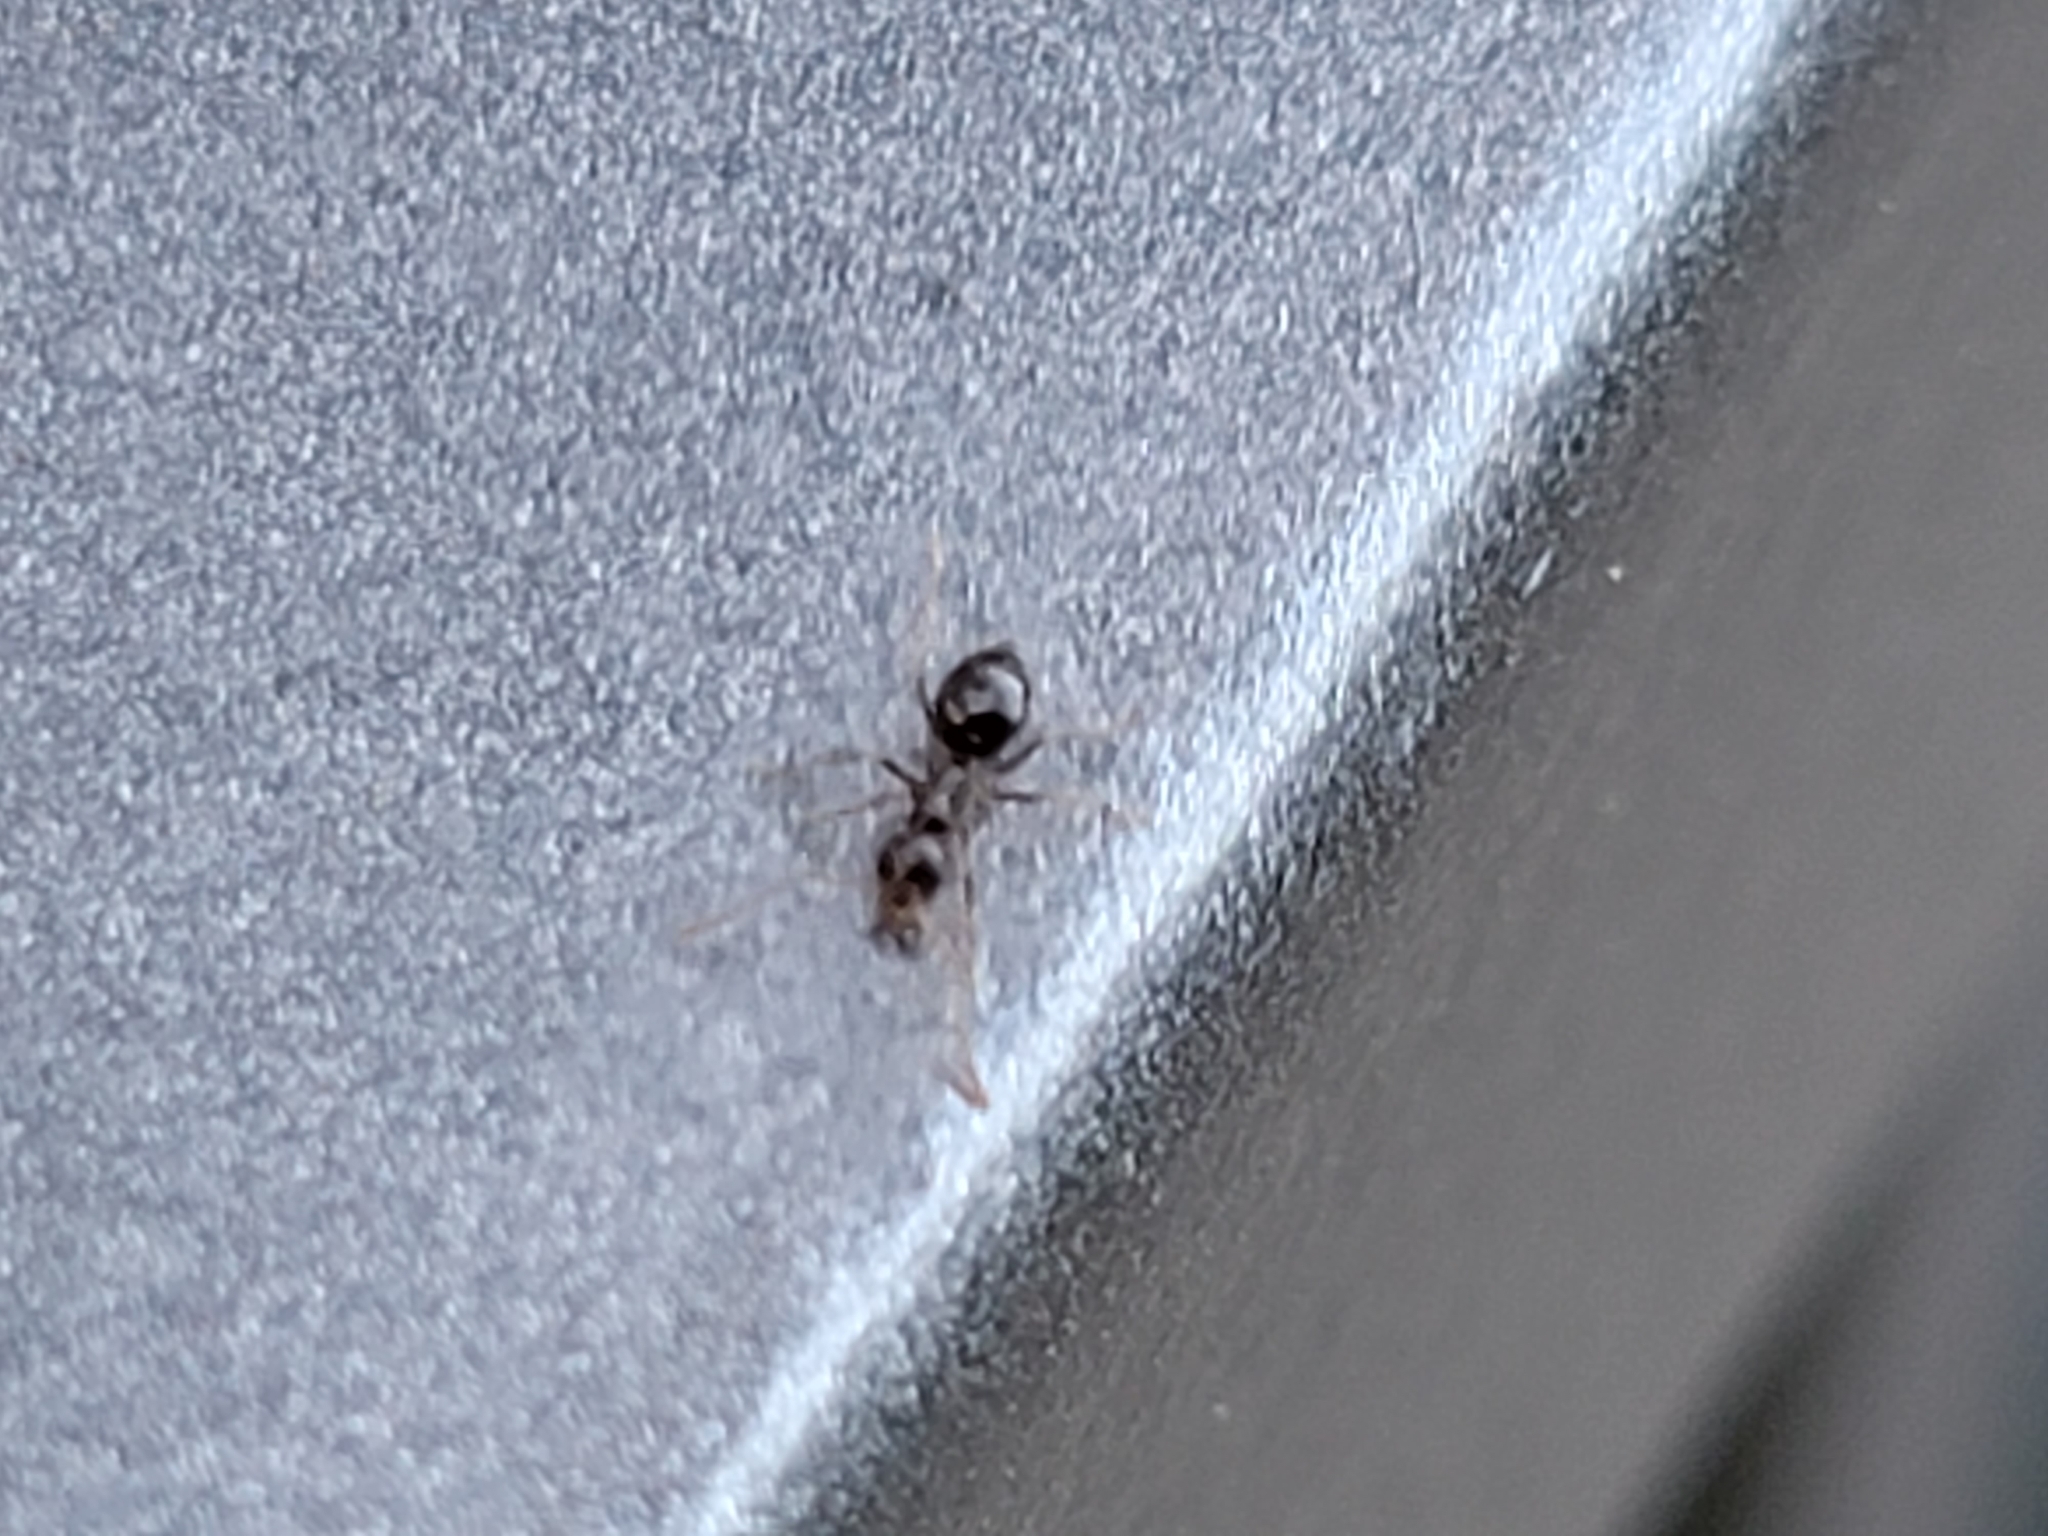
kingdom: Animalia
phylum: Arthropoda
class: Insecta
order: Hymenoptera
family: Formicidae
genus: Prenolepis
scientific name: Prenolepis imparis
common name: Small honey ant
